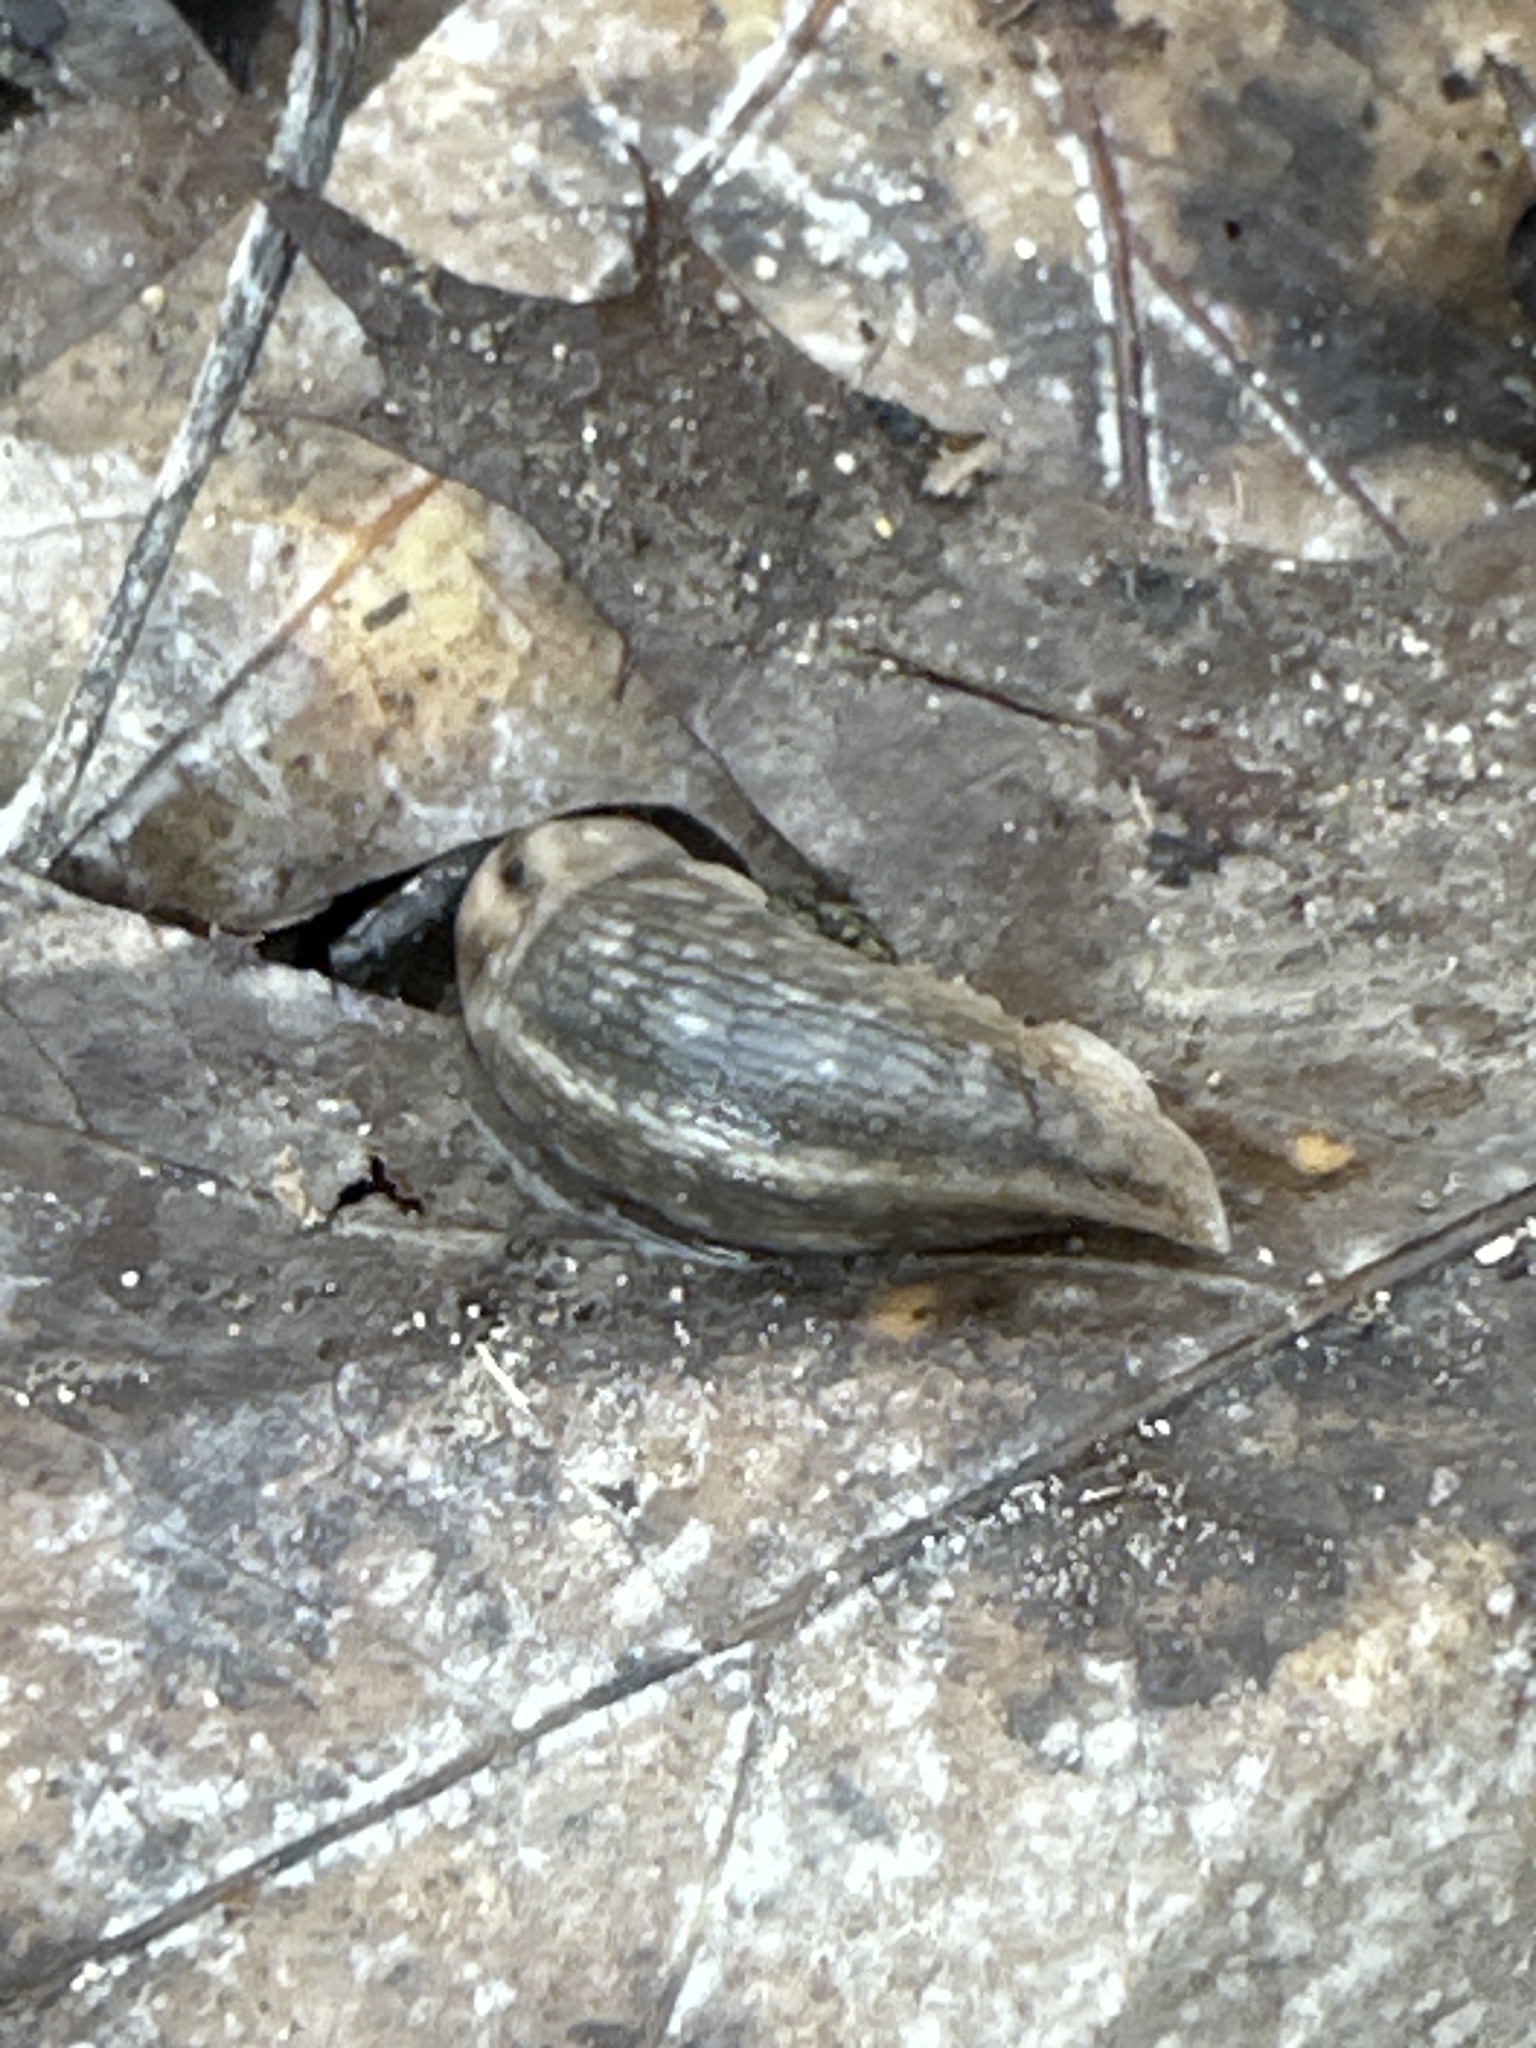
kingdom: Animalia
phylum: Mollusca
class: Gastropoda
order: Stylommatophora
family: Limacidae
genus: Lehmannia
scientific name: Lehmannia marginata
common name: Tree slug
